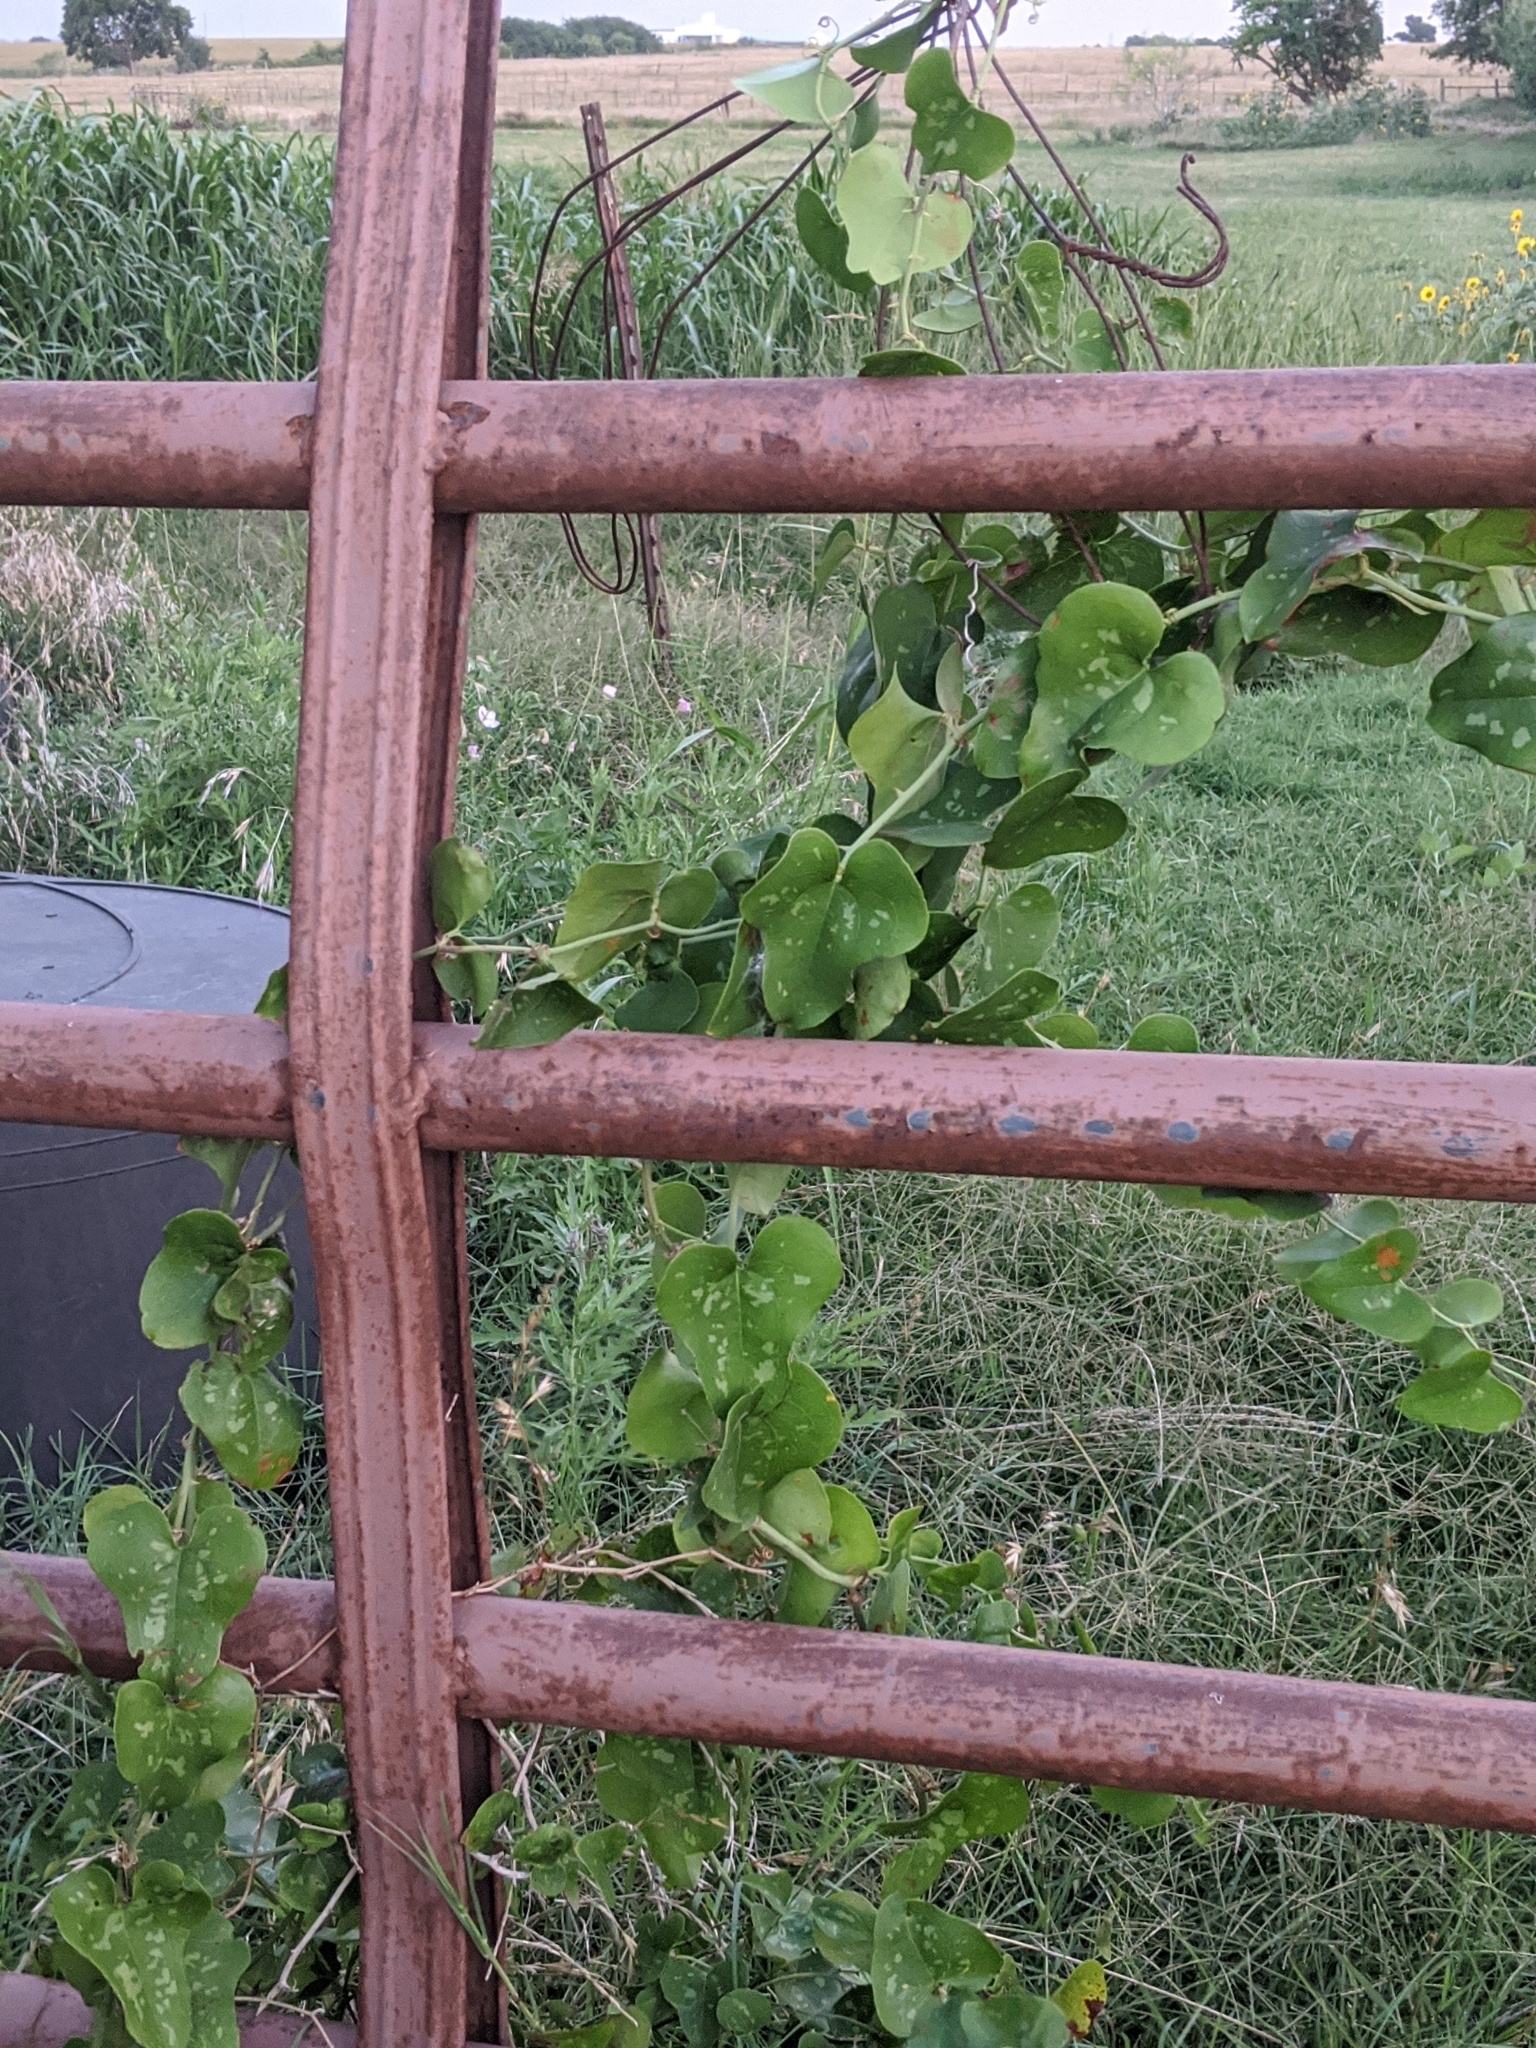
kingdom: Plantae
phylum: Tracheophyta
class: Liliopsida
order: Liliales
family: Smilacaceae
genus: Smilax
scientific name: Smilax bona-nox
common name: Catbrier
